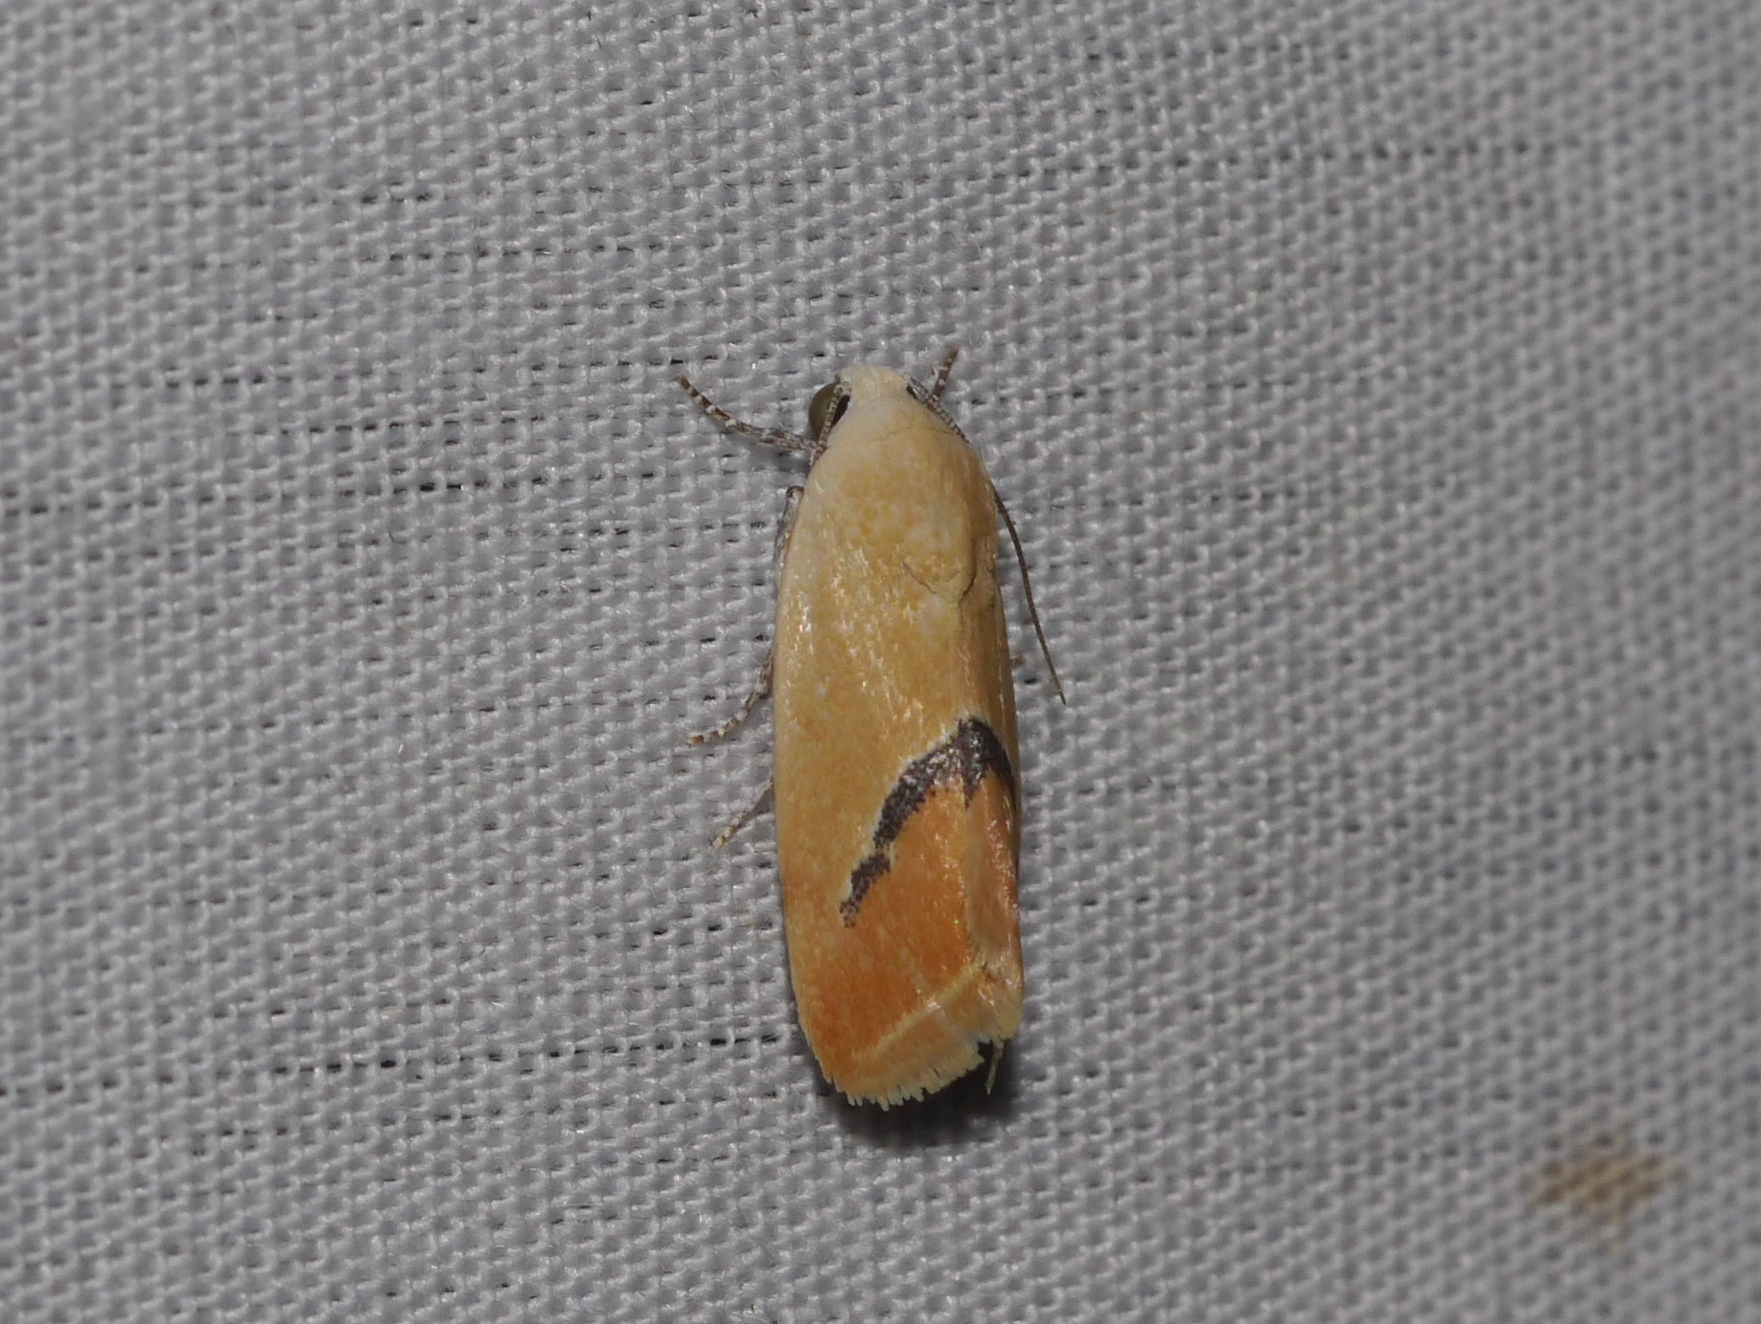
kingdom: Animalia
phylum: Arthropoda
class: Insecta
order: Lepidoptera
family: Noctuidae
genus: Ponometia
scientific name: Ponometia venustula
